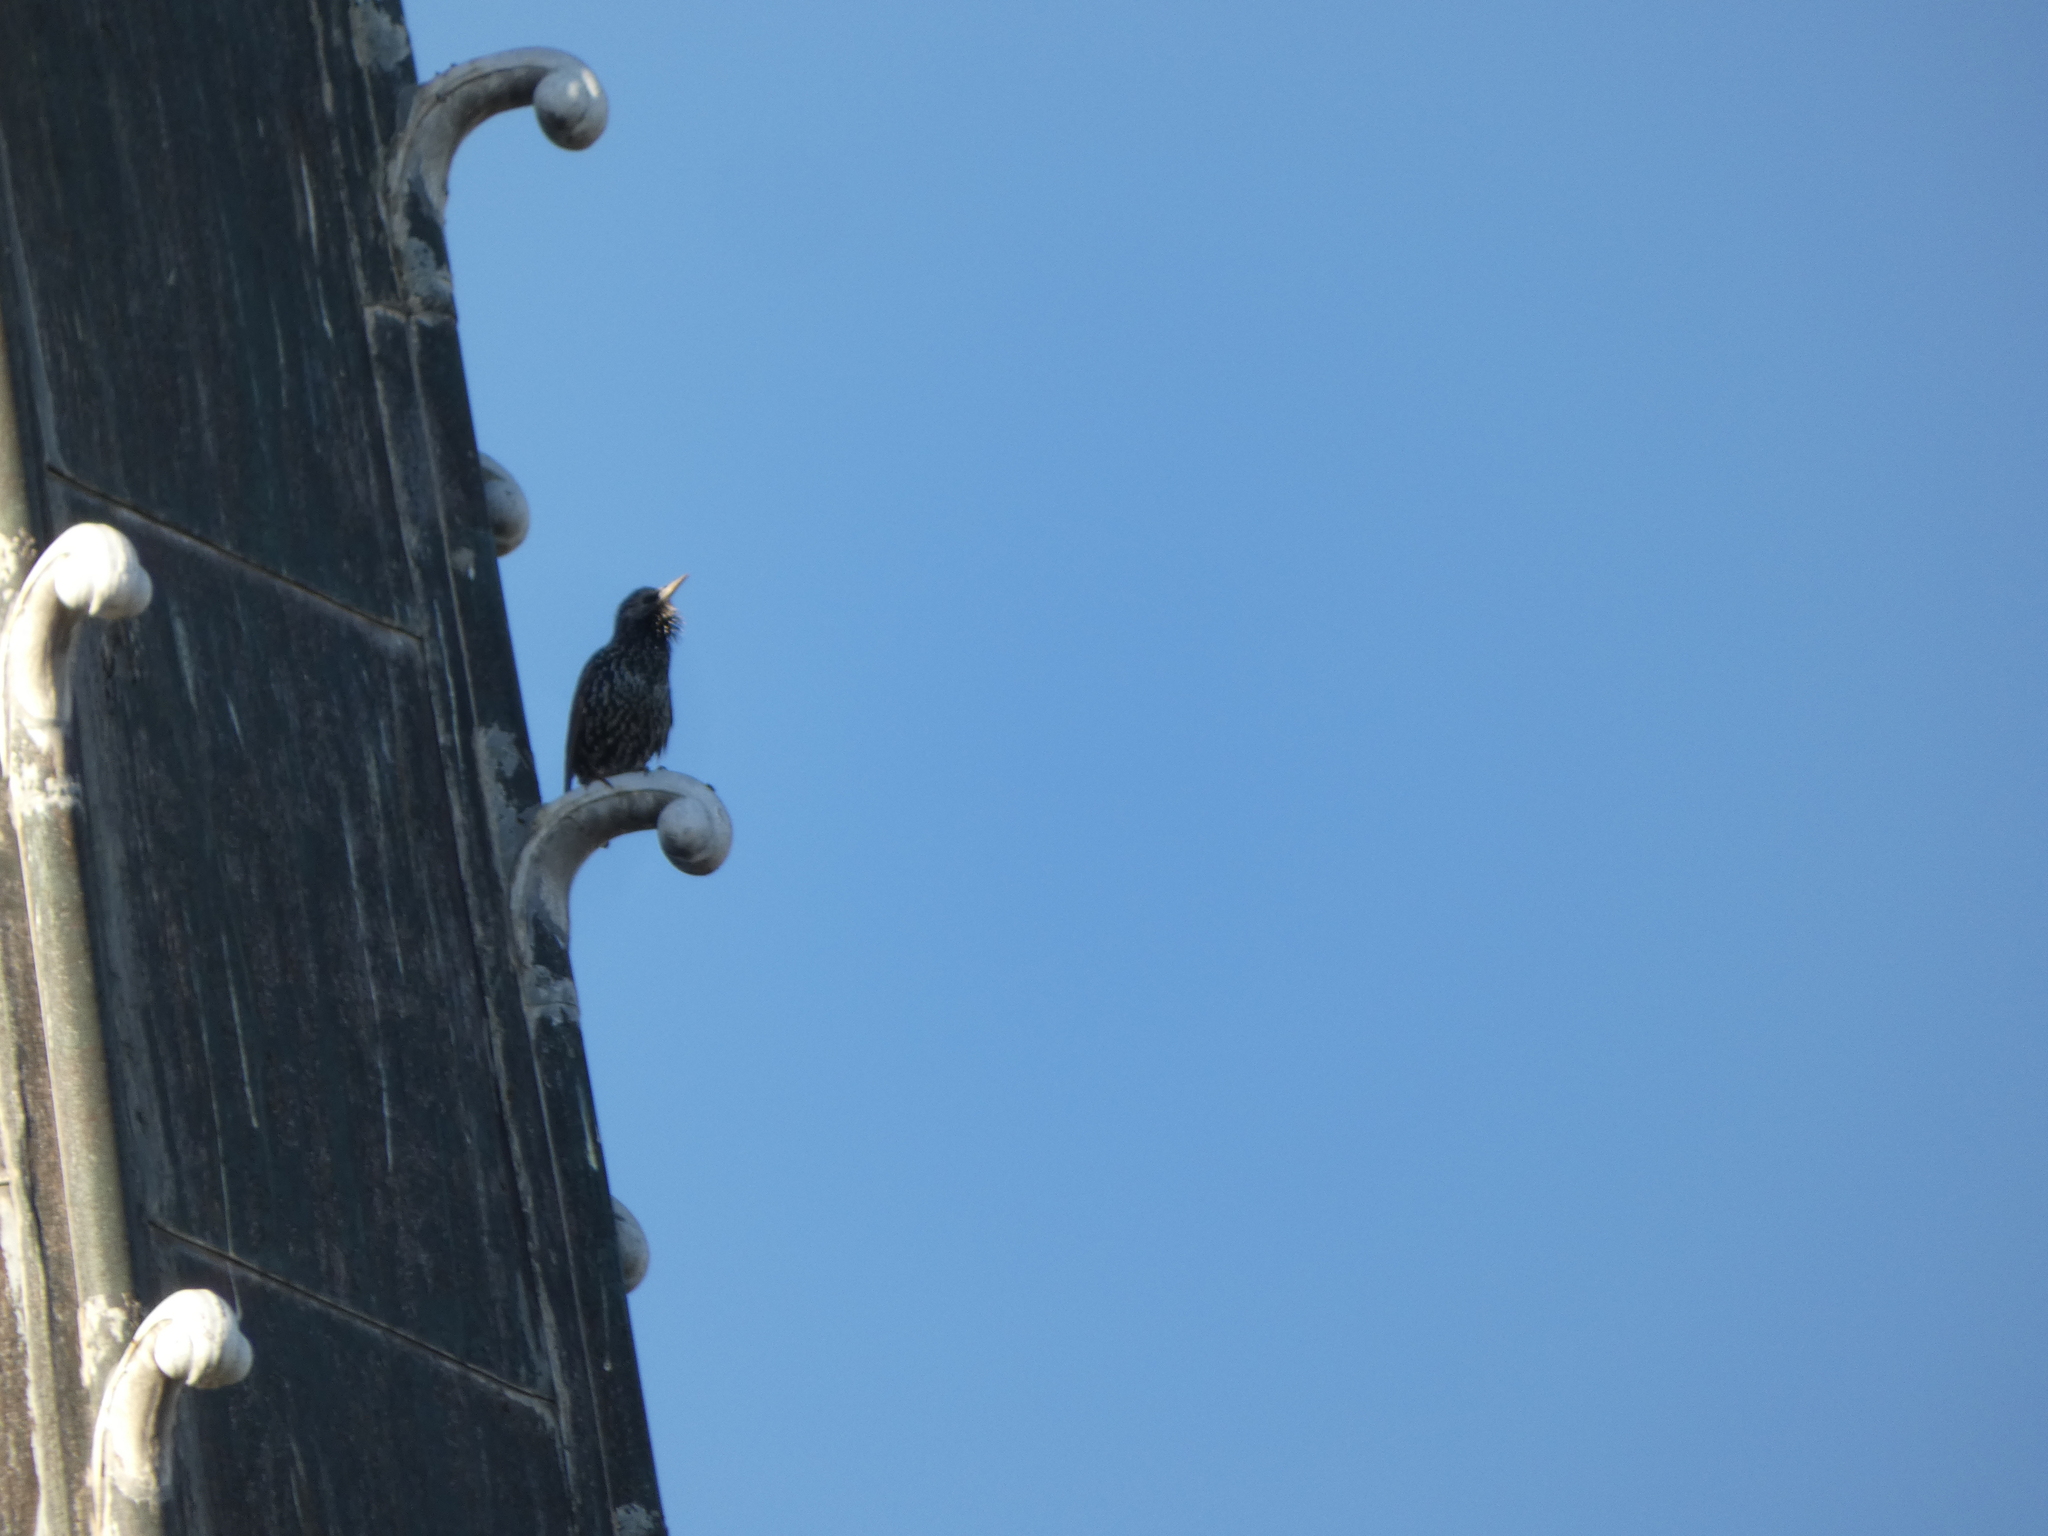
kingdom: Animalia
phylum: Chordata
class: Aves
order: Passeriformes
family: Sturnidae
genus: Sturnus
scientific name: Sturnus vulgaris
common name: Common starling
